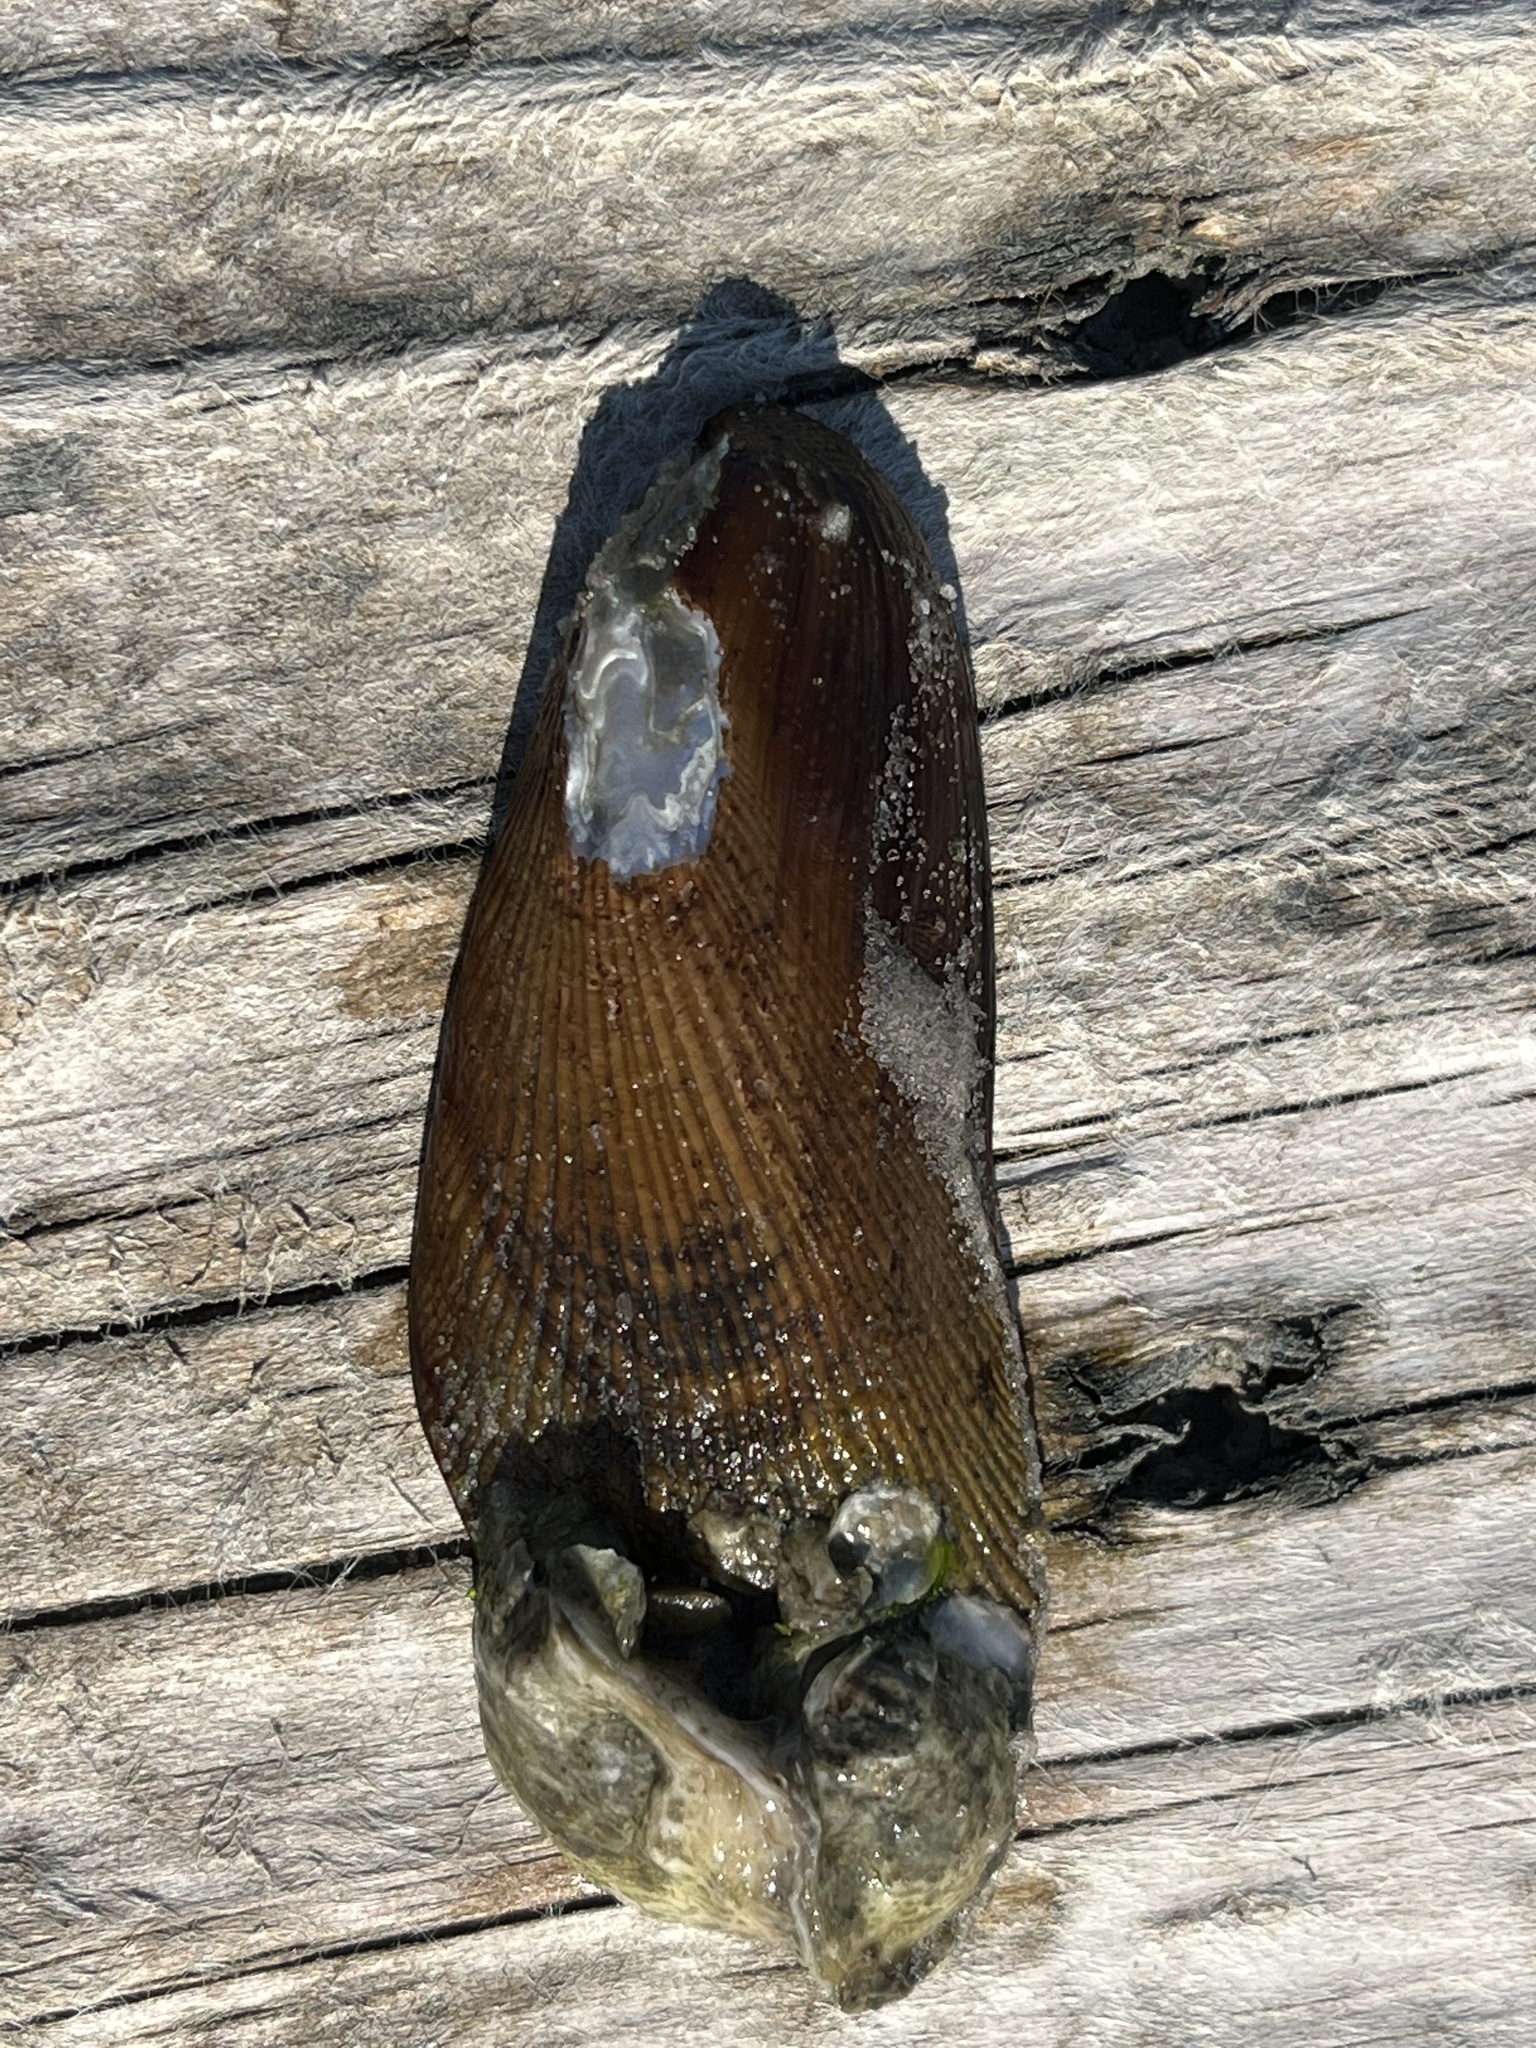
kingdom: Animalia
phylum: Mollusca
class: Bivalvia
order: Mytilida
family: Mytilidae
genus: Geukensia
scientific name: Geukensia demissa
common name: Ribbed mussel
